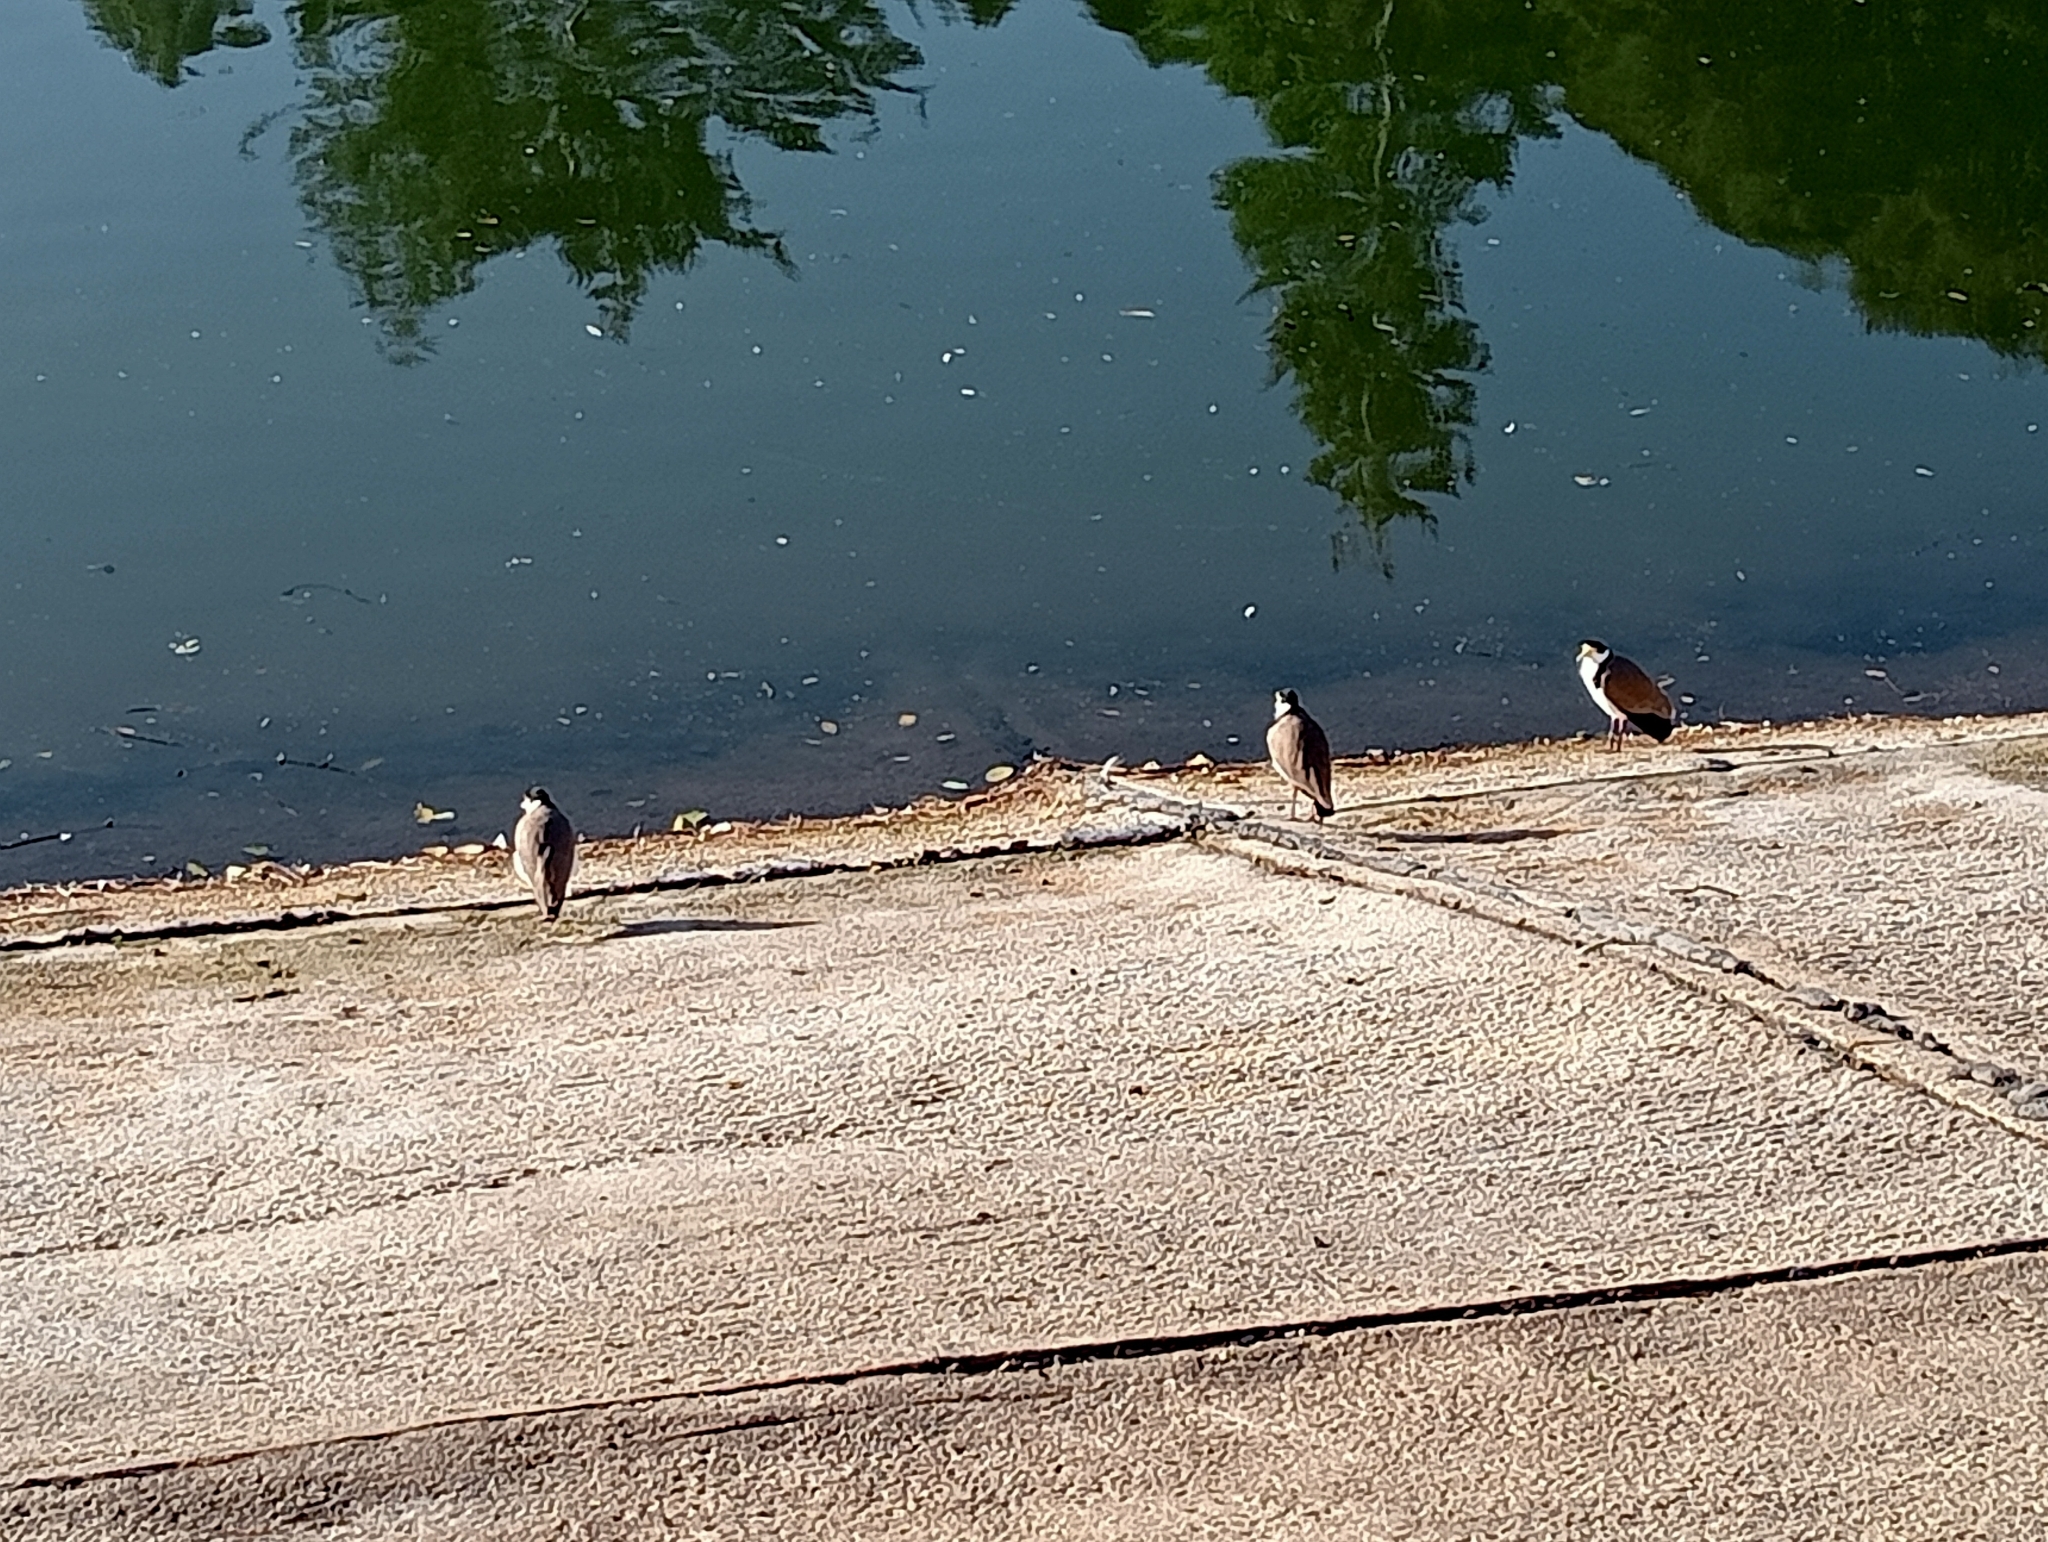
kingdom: Animalia
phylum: Chordata
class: Aves
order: Charadriiformes
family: Charadriidae
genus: Vanellus
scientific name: Vanellus miles
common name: Masked lapwing
